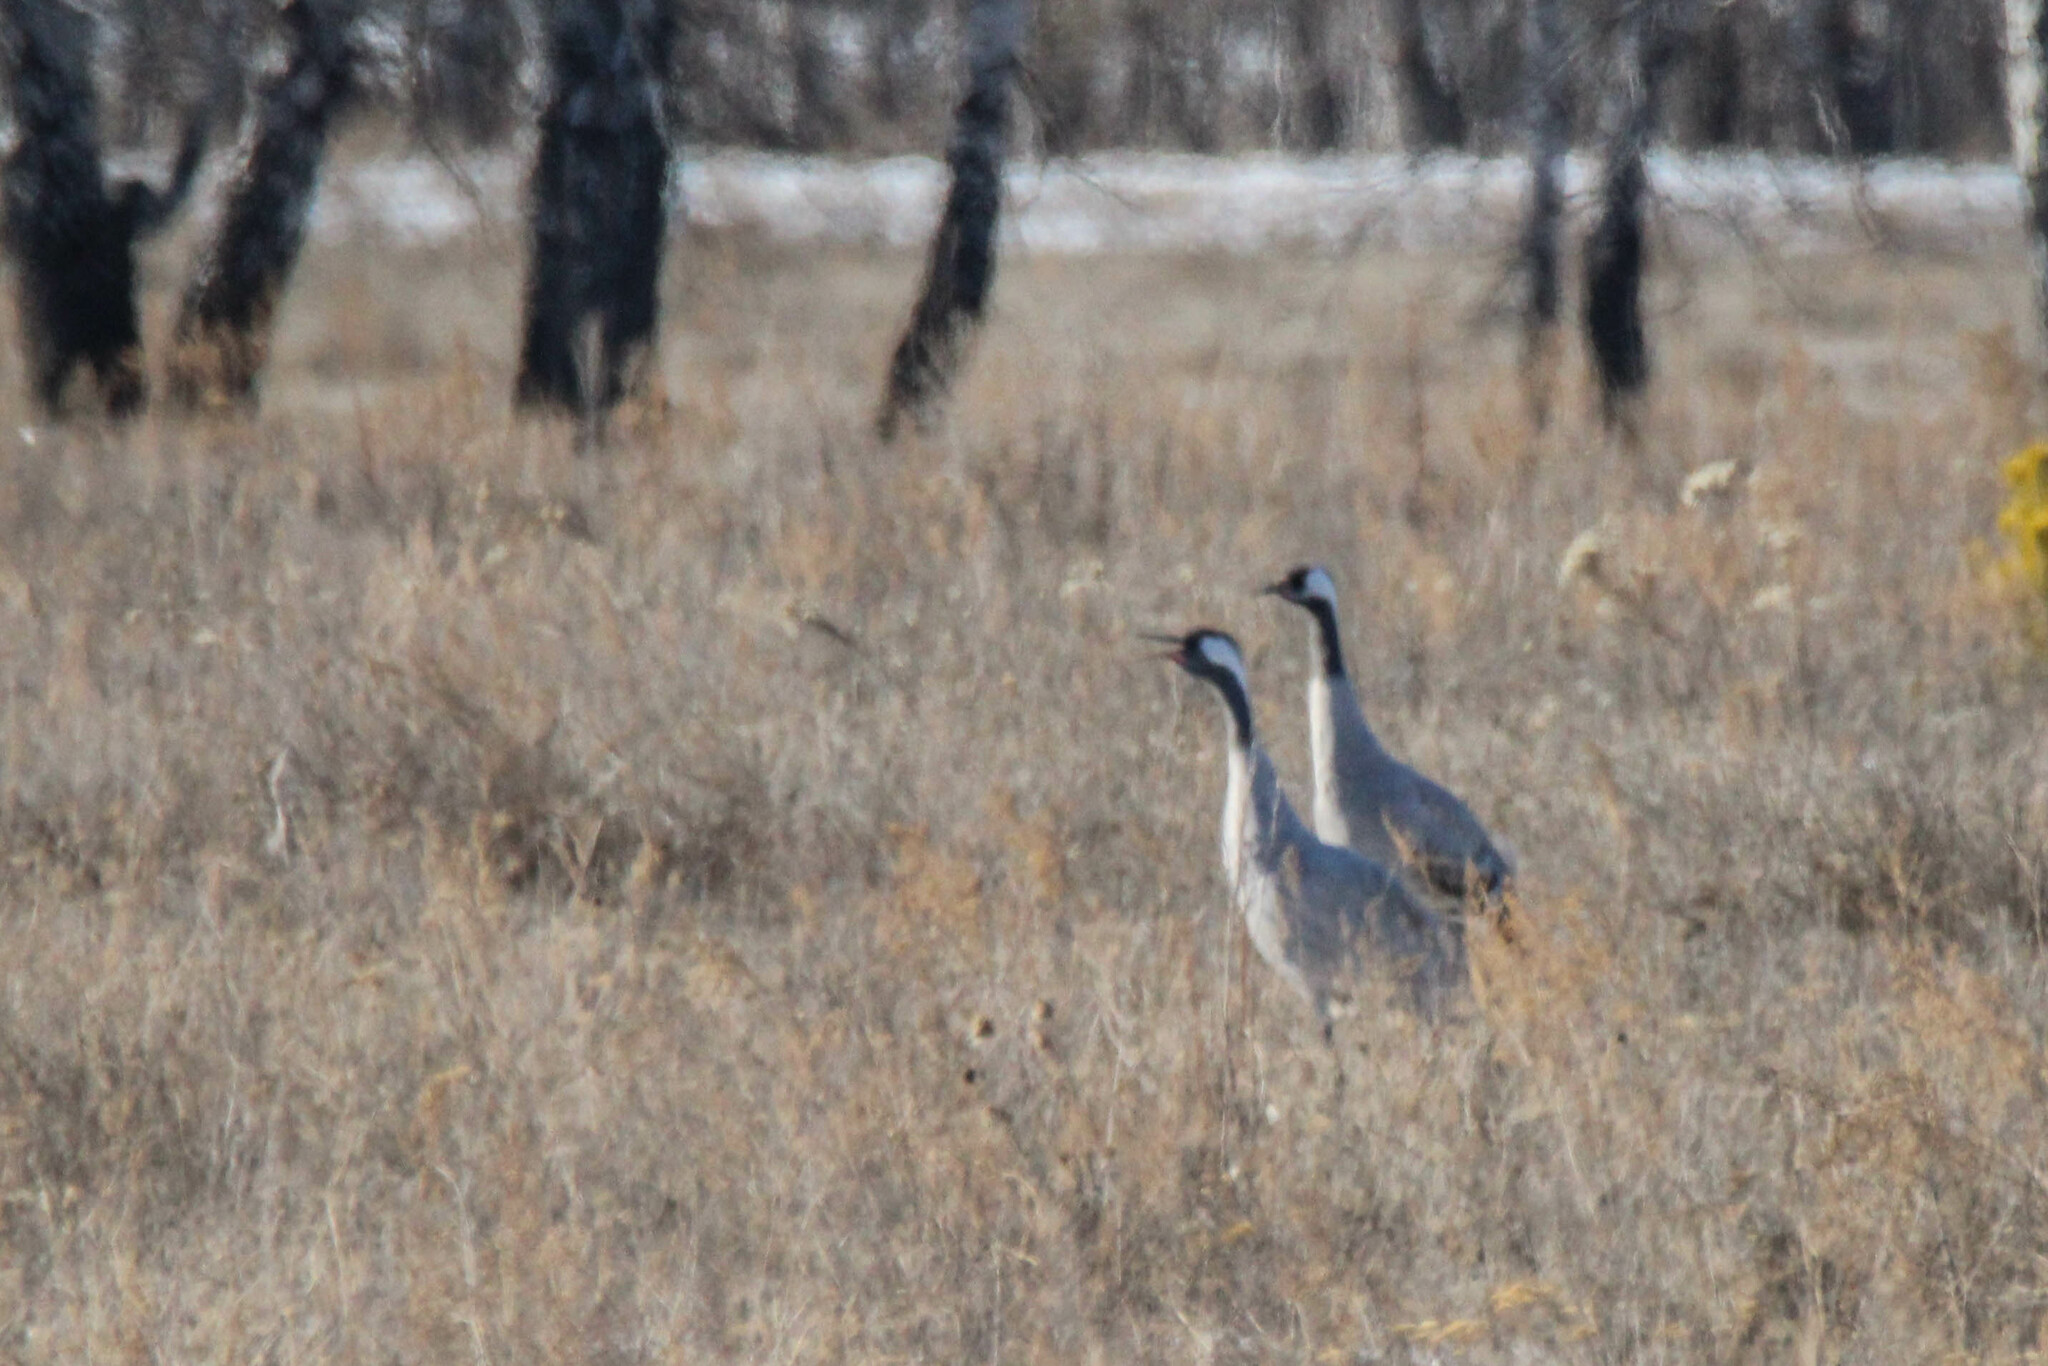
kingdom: Animalia
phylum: Chordata
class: Aves
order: Gruiformes
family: Gruidae
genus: Grus
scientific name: Grus grus
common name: Common crane
